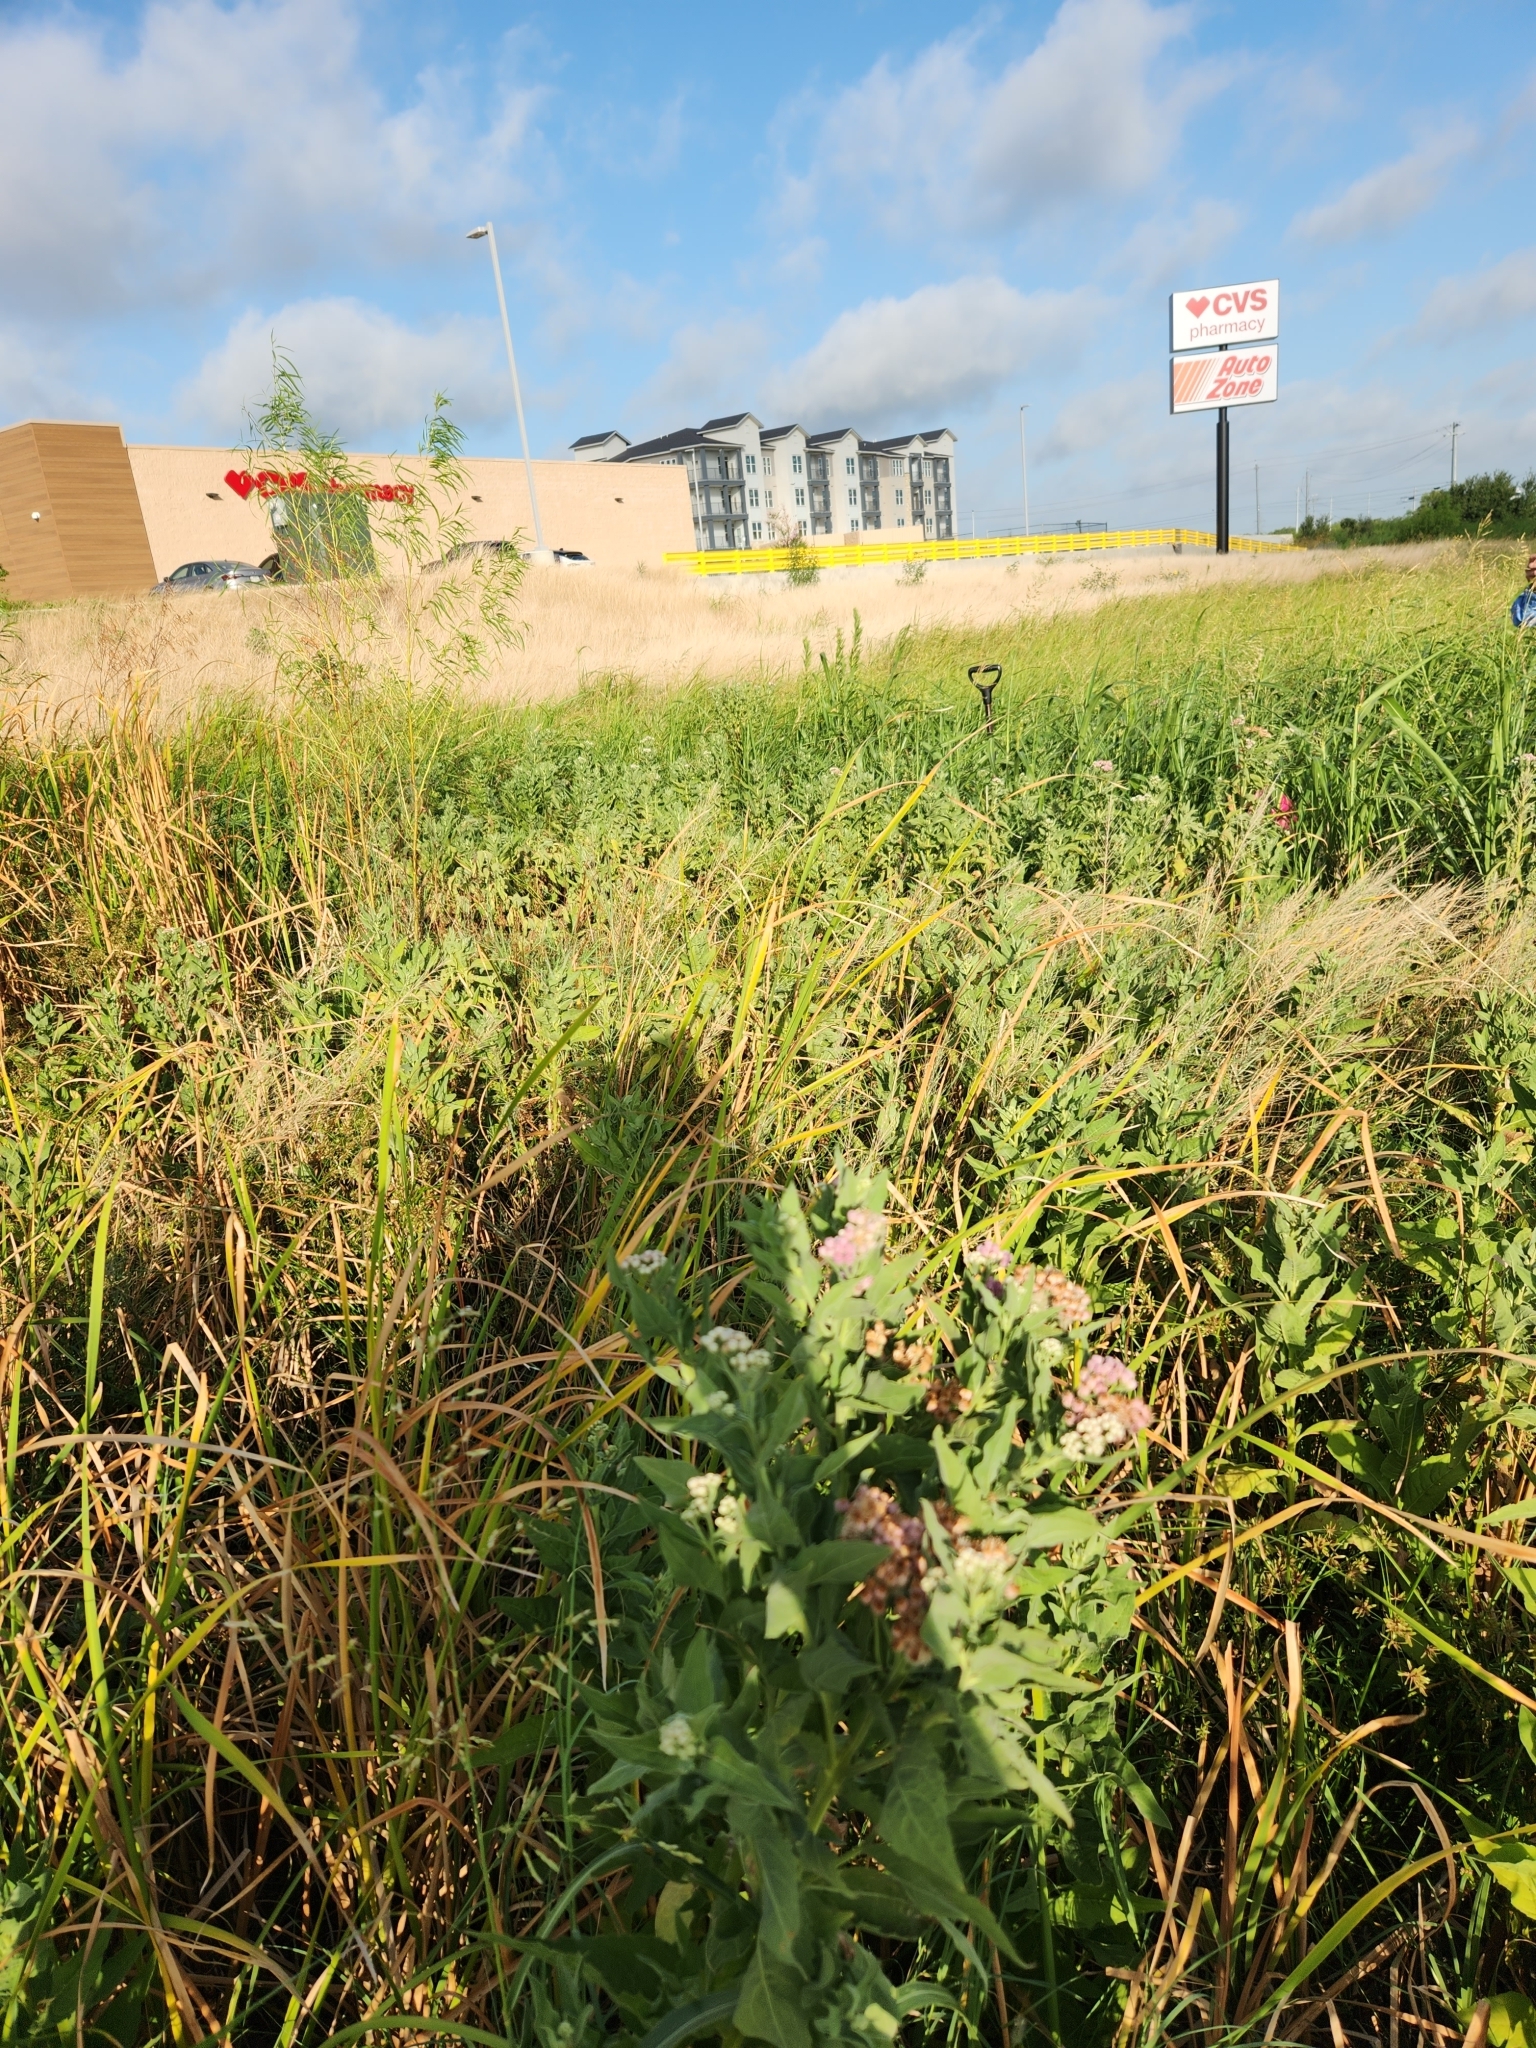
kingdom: Plantae
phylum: Tracheophyta
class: Magnoliopsida
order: Asterales
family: Asteraceae
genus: Pluchea
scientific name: Pluchea odorata
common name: Saltmarsh fleabane
